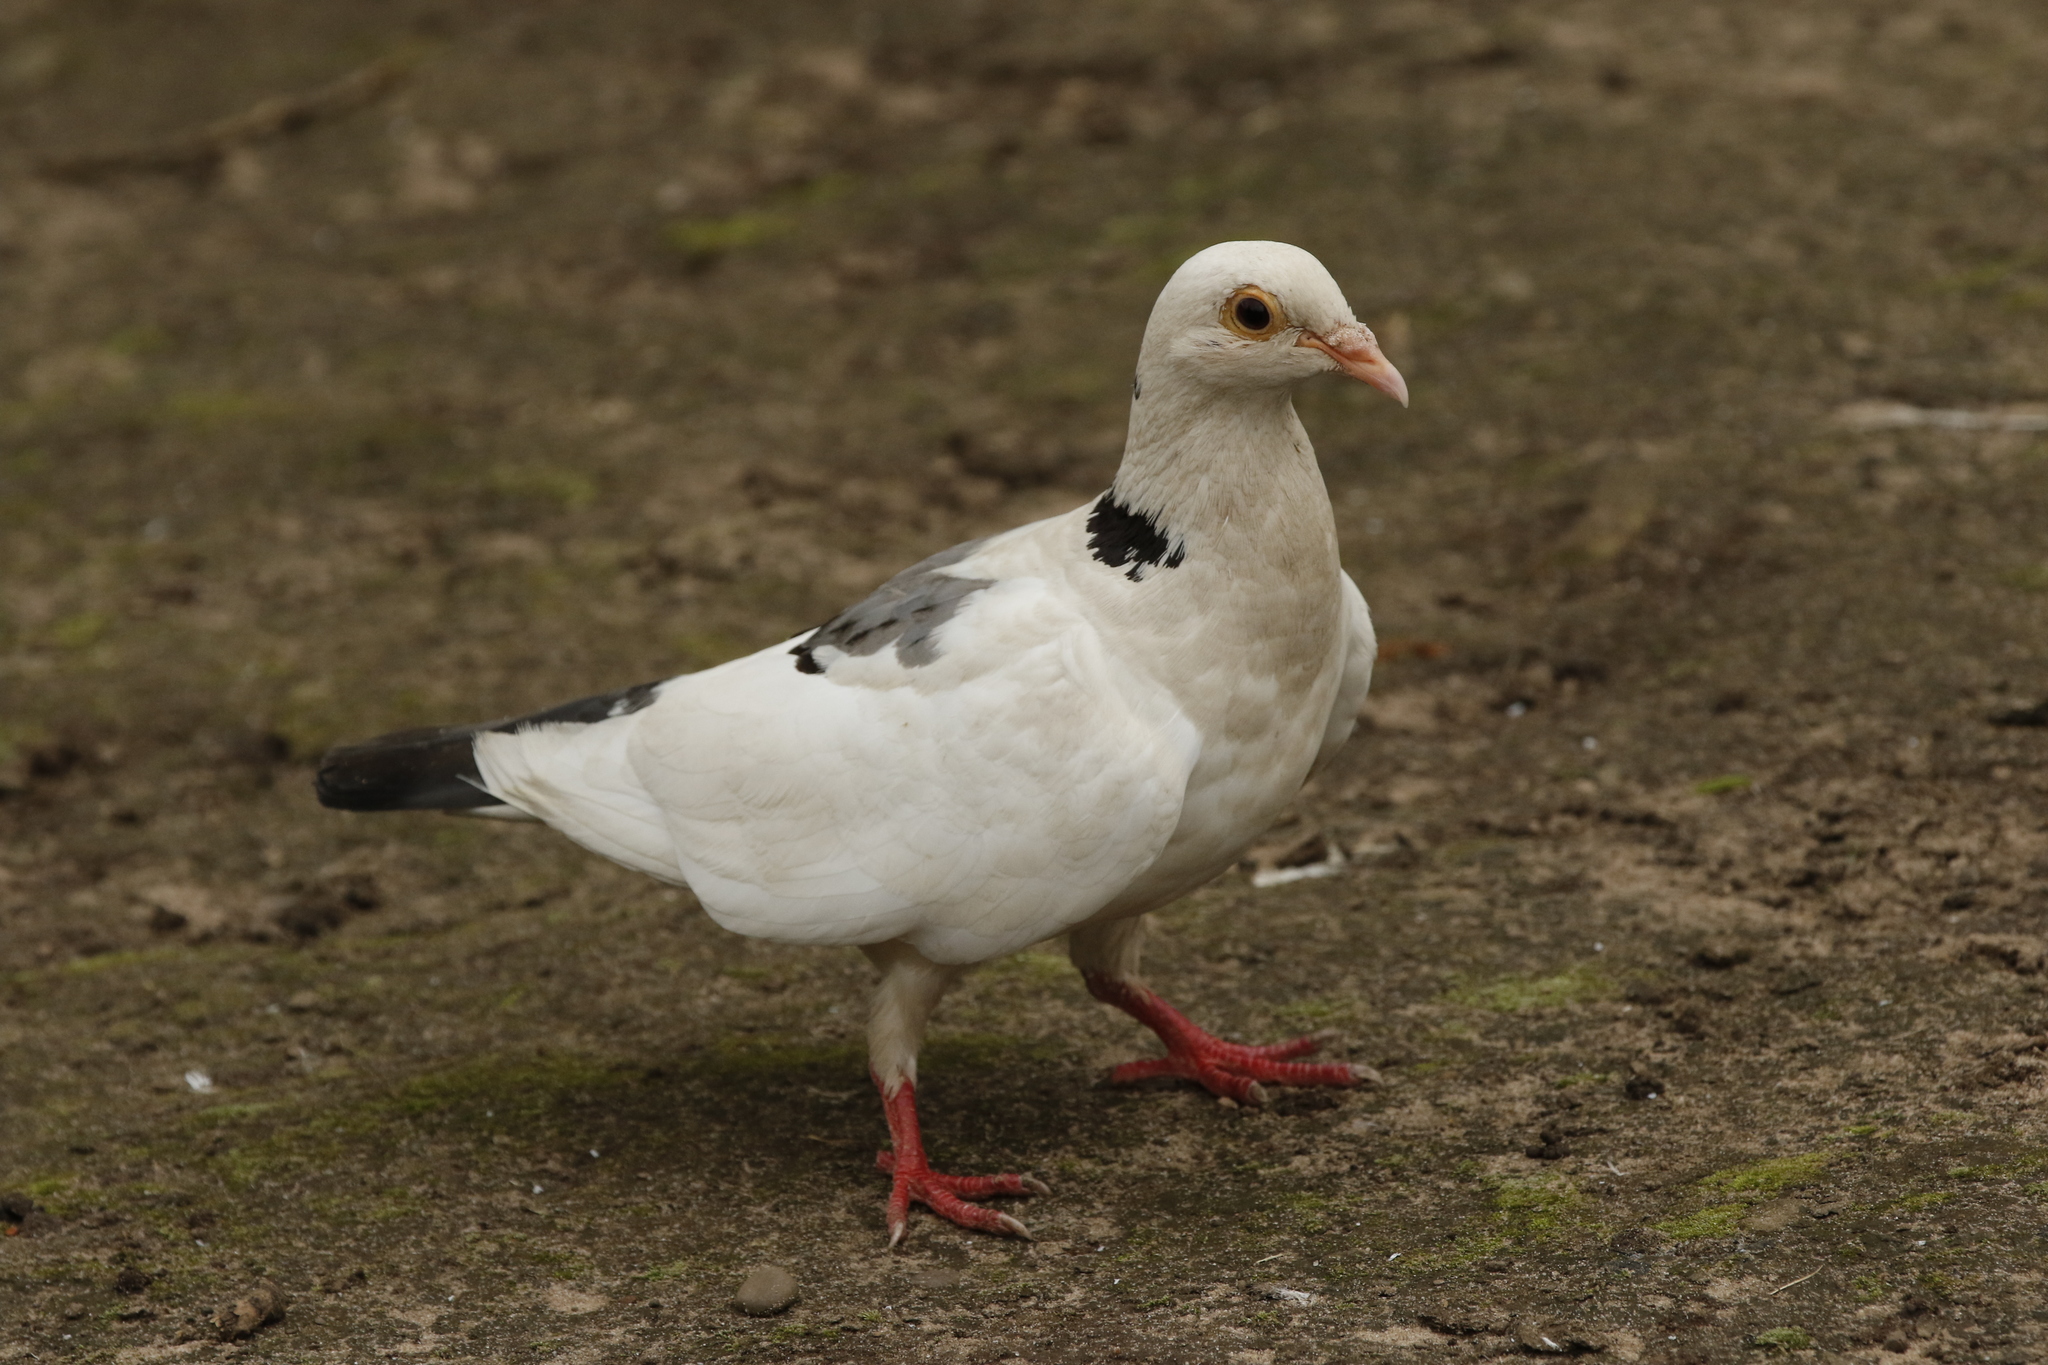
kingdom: Animalia
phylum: Chordata
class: Aves
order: Columbiformes
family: Columbidae
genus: Columba
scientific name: Columba livia
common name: Rock pigeon
